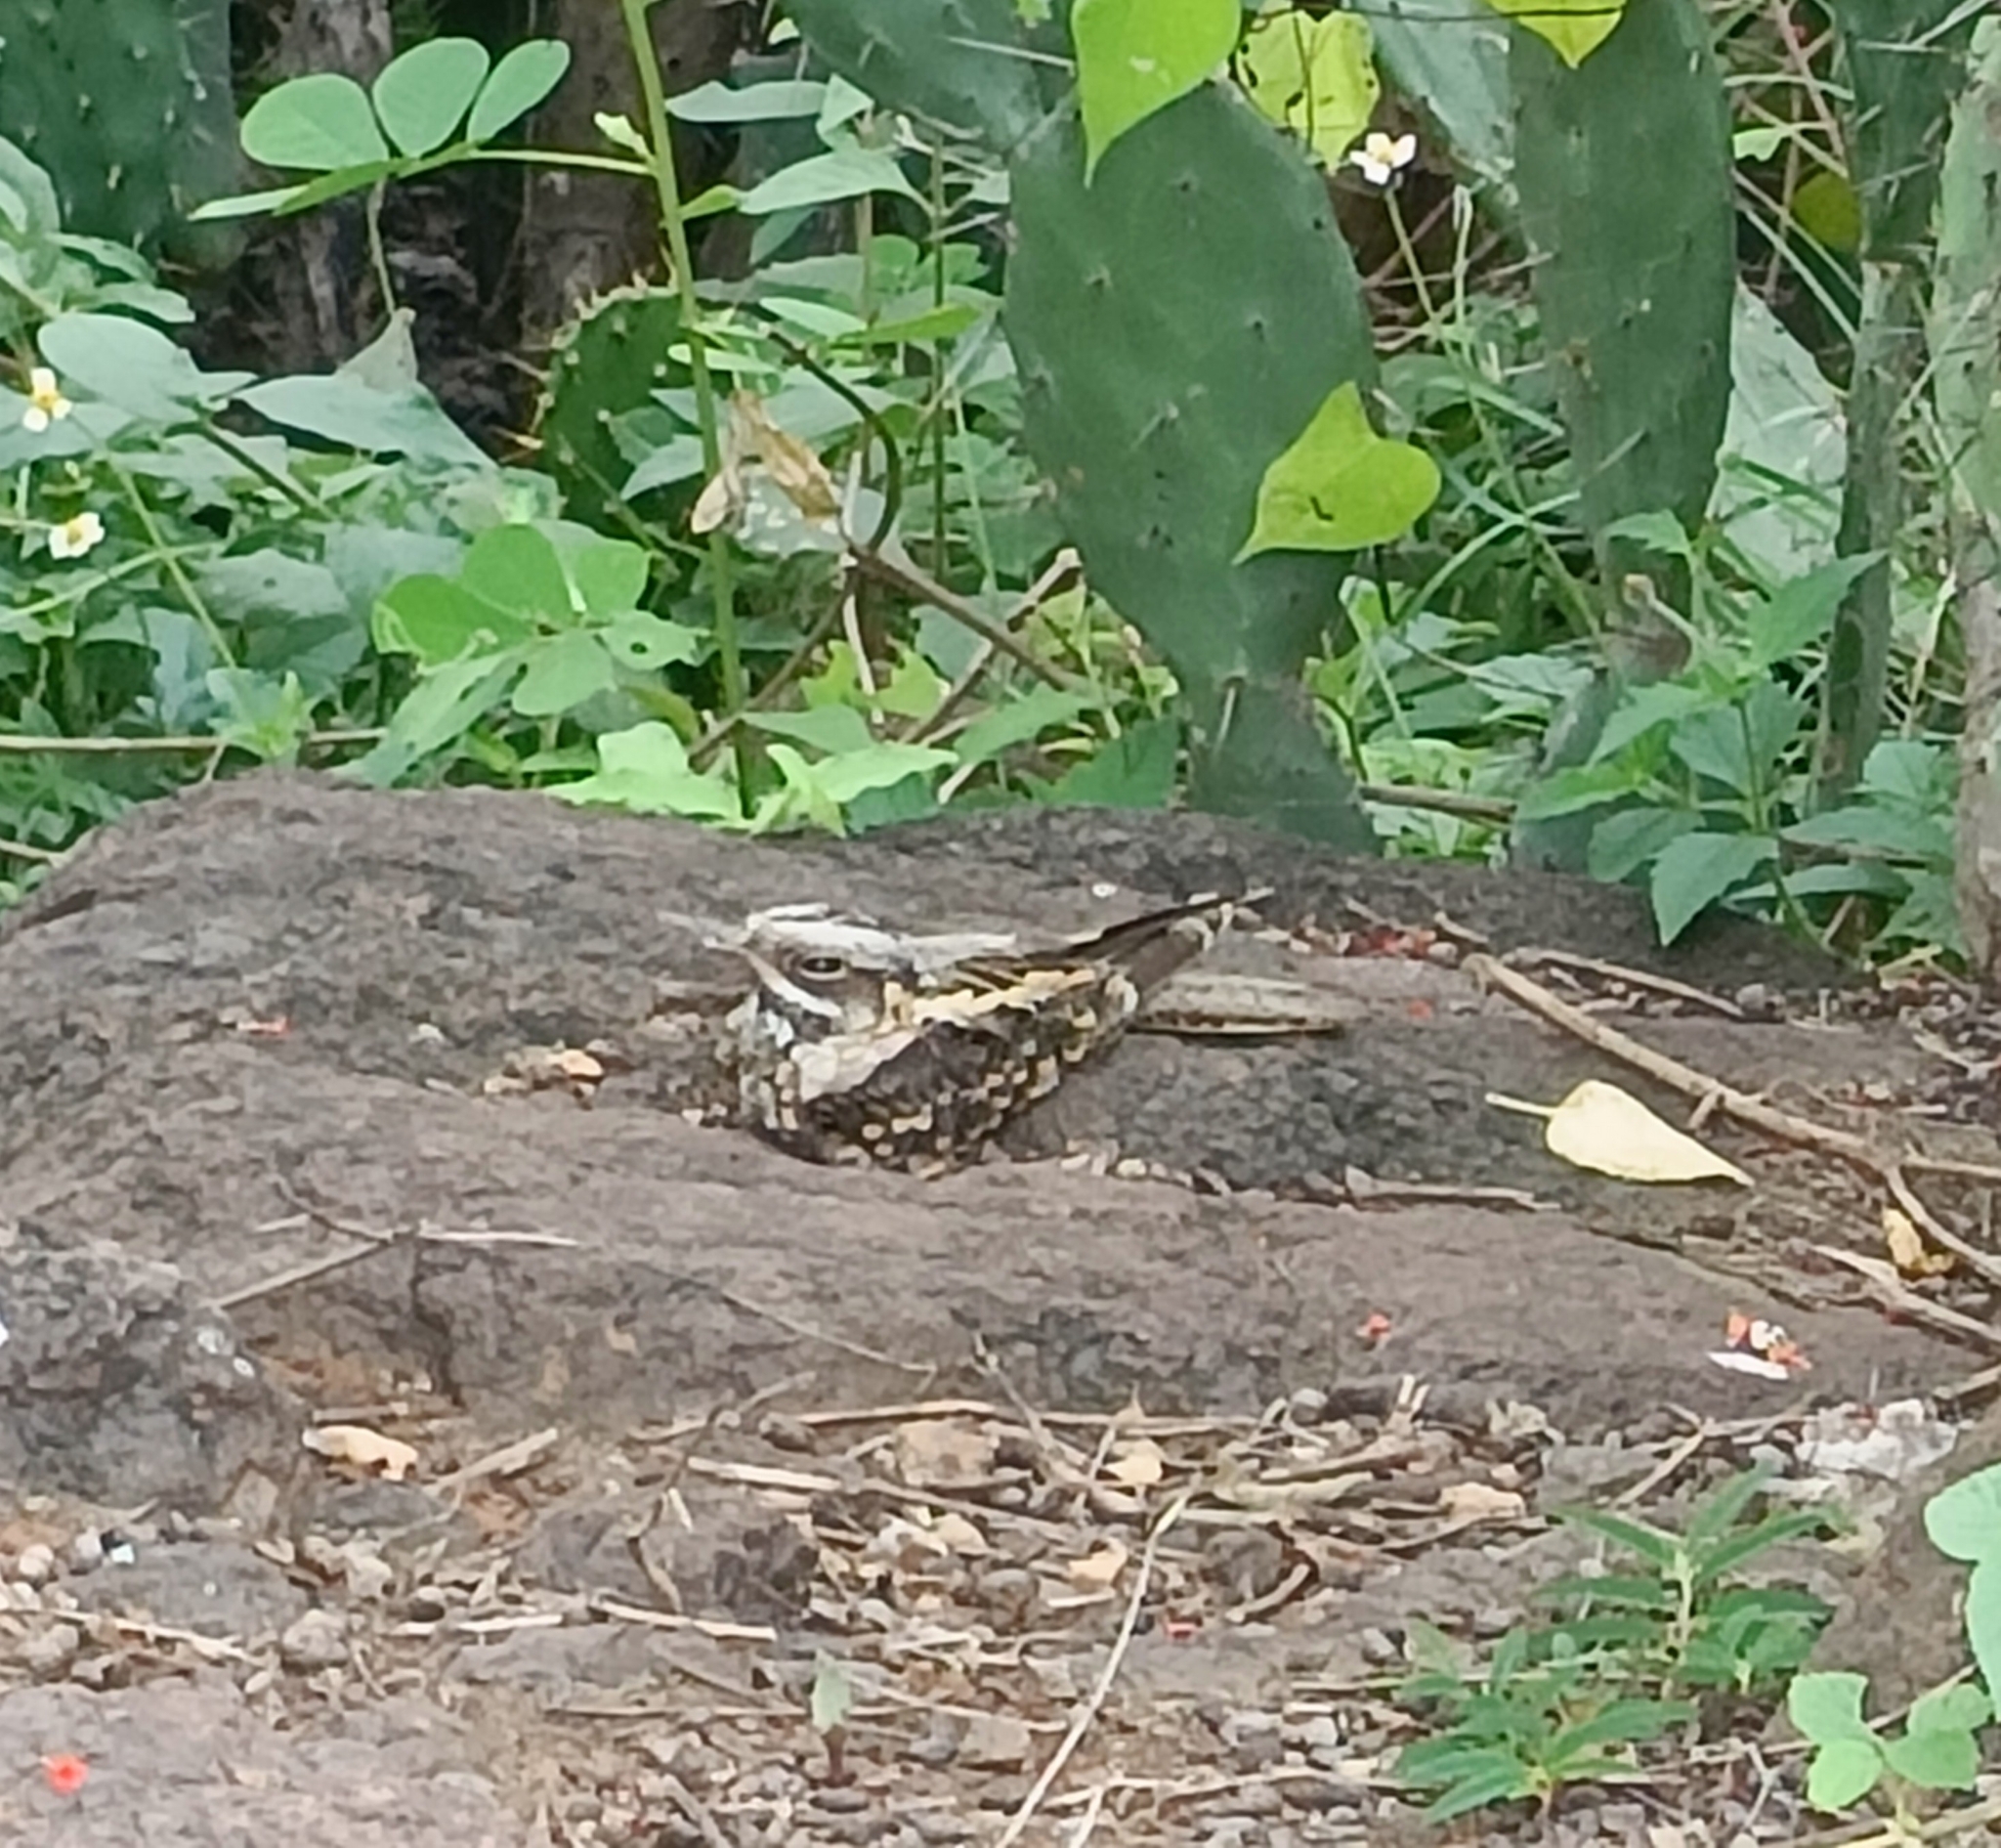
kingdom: Animalia
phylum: Chordata
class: Aves
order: Caprimulgiformes
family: Caprimulgidae
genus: Caprimulgus
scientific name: Caprimulgus asiaticus
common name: Indian nightjar
